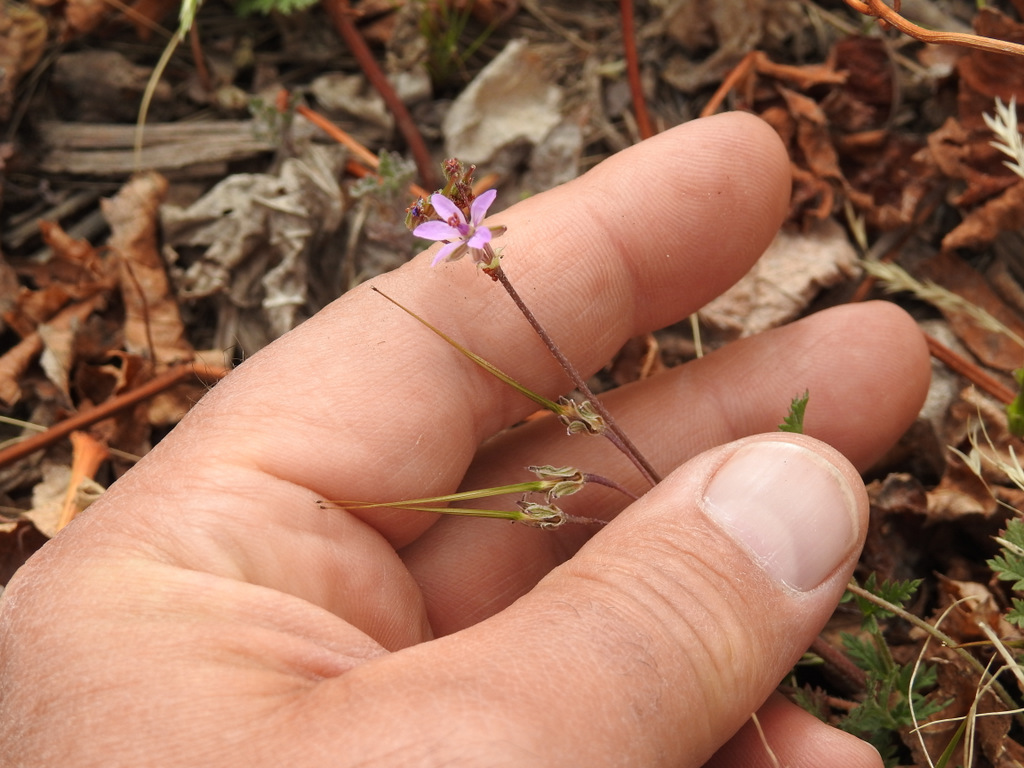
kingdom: Plantae
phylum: Tracheophyta
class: Magnoliopsida
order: Geraniales
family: Geraniaceae
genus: Erodium
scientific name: Erodium cicutarium
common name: Common stork's-bill
